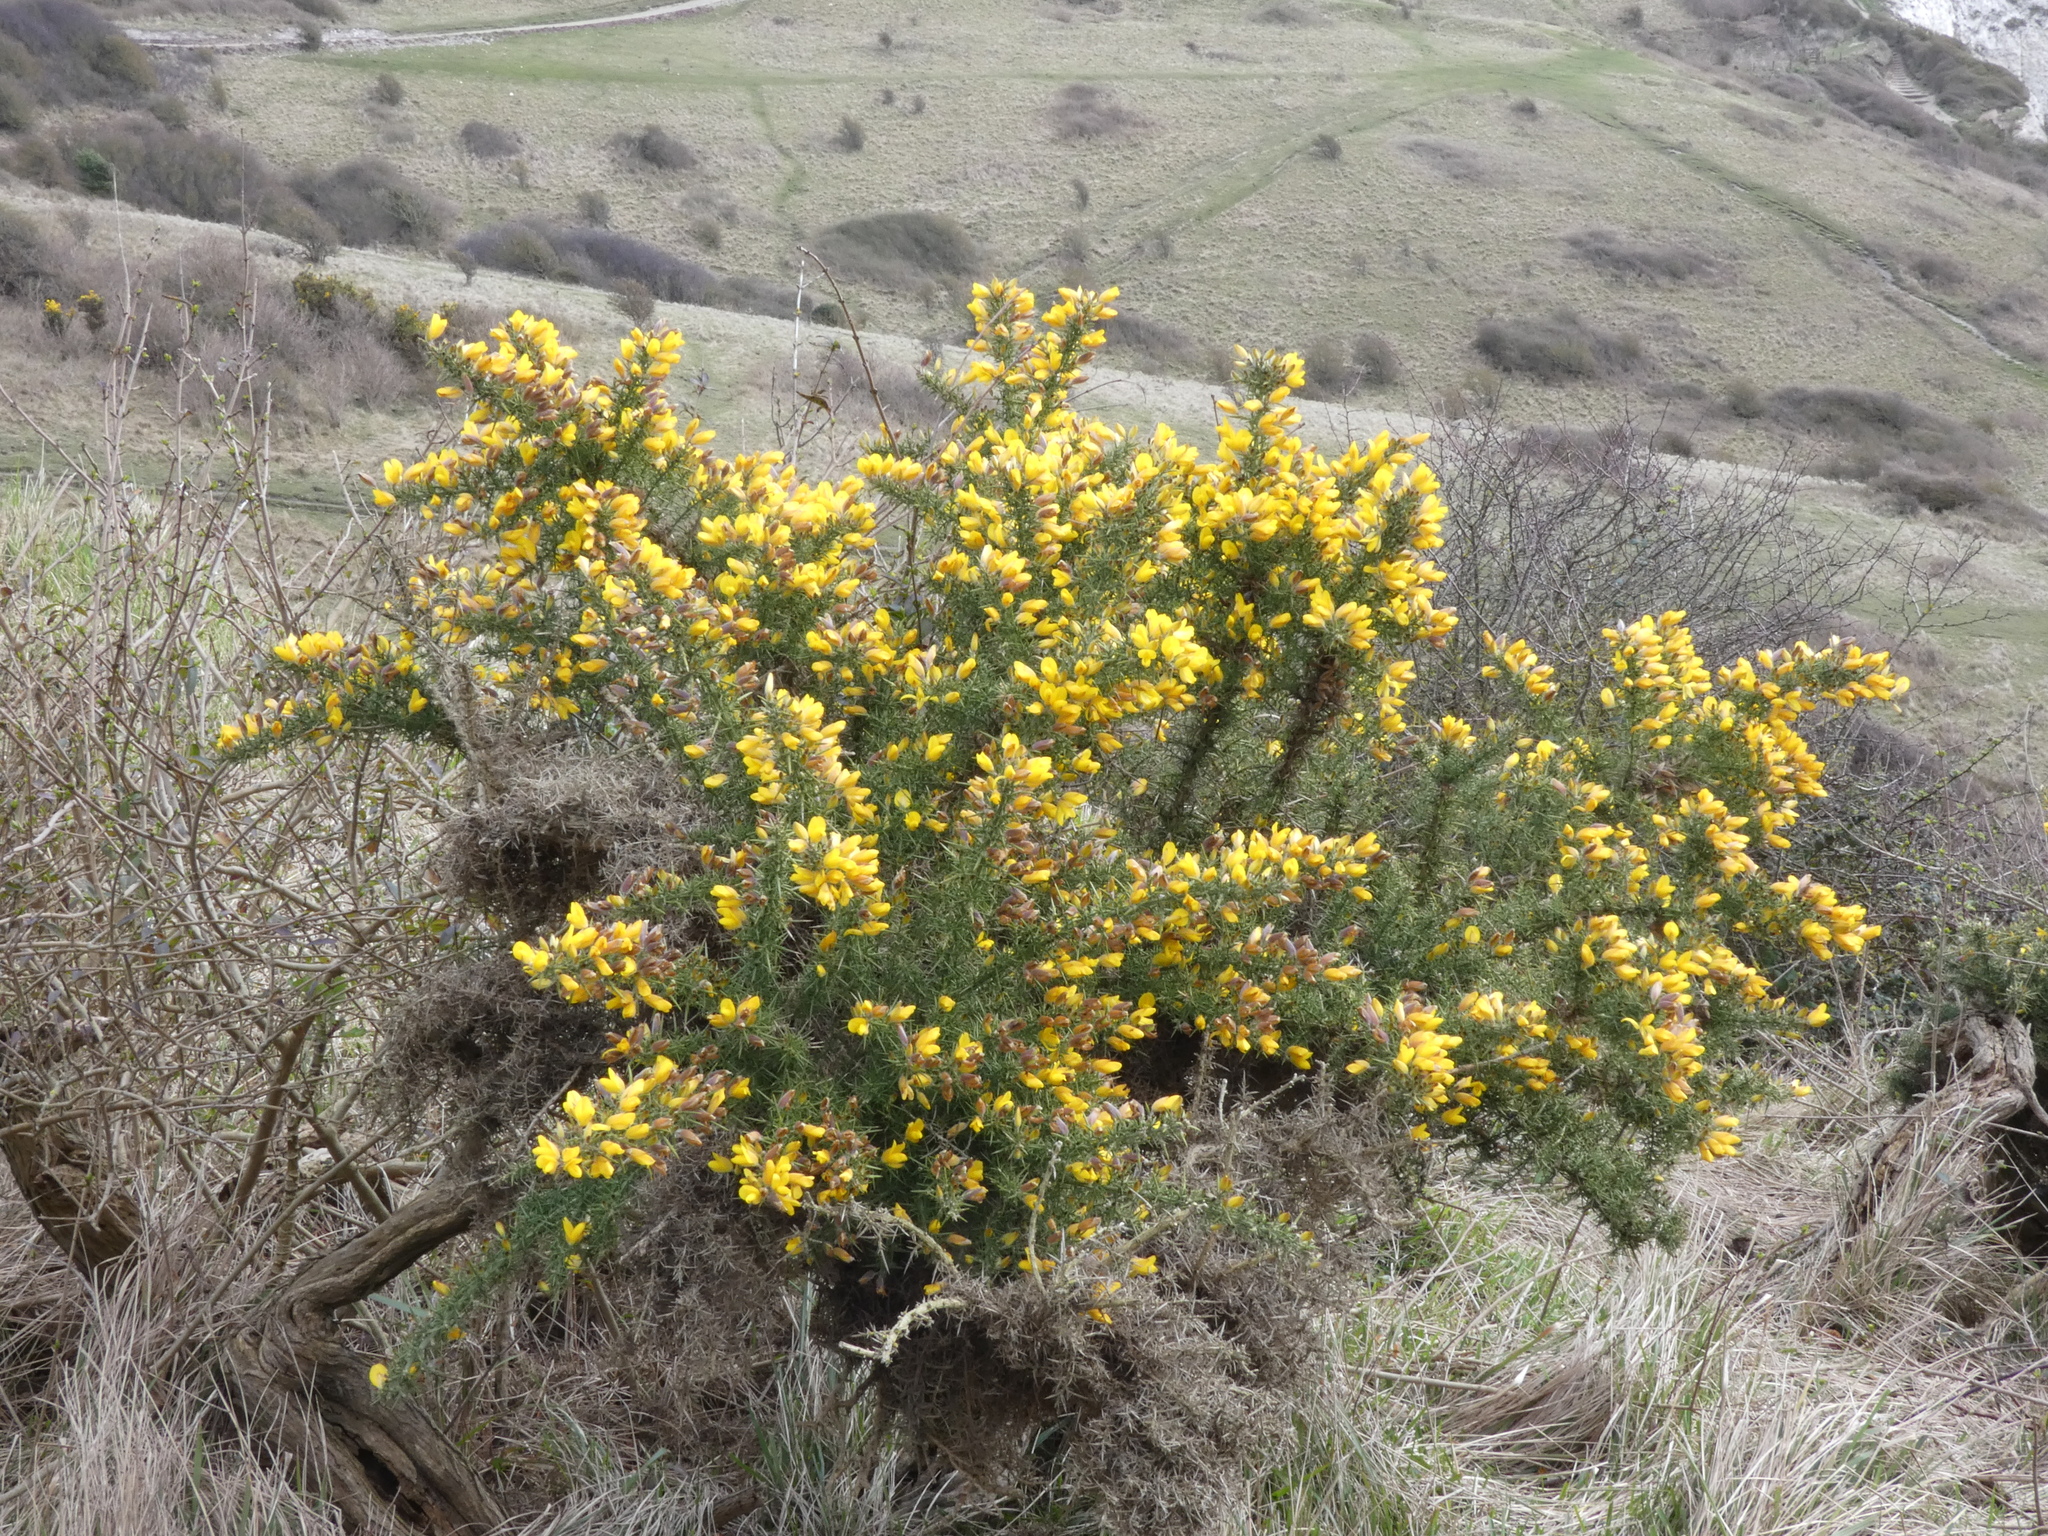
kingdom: Plantae
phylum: Tracheophyta
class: Magnoliopsida
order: Fabales
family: Fabaceae
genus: Ulex
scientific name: Ulex europaeus
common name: Common gorse
